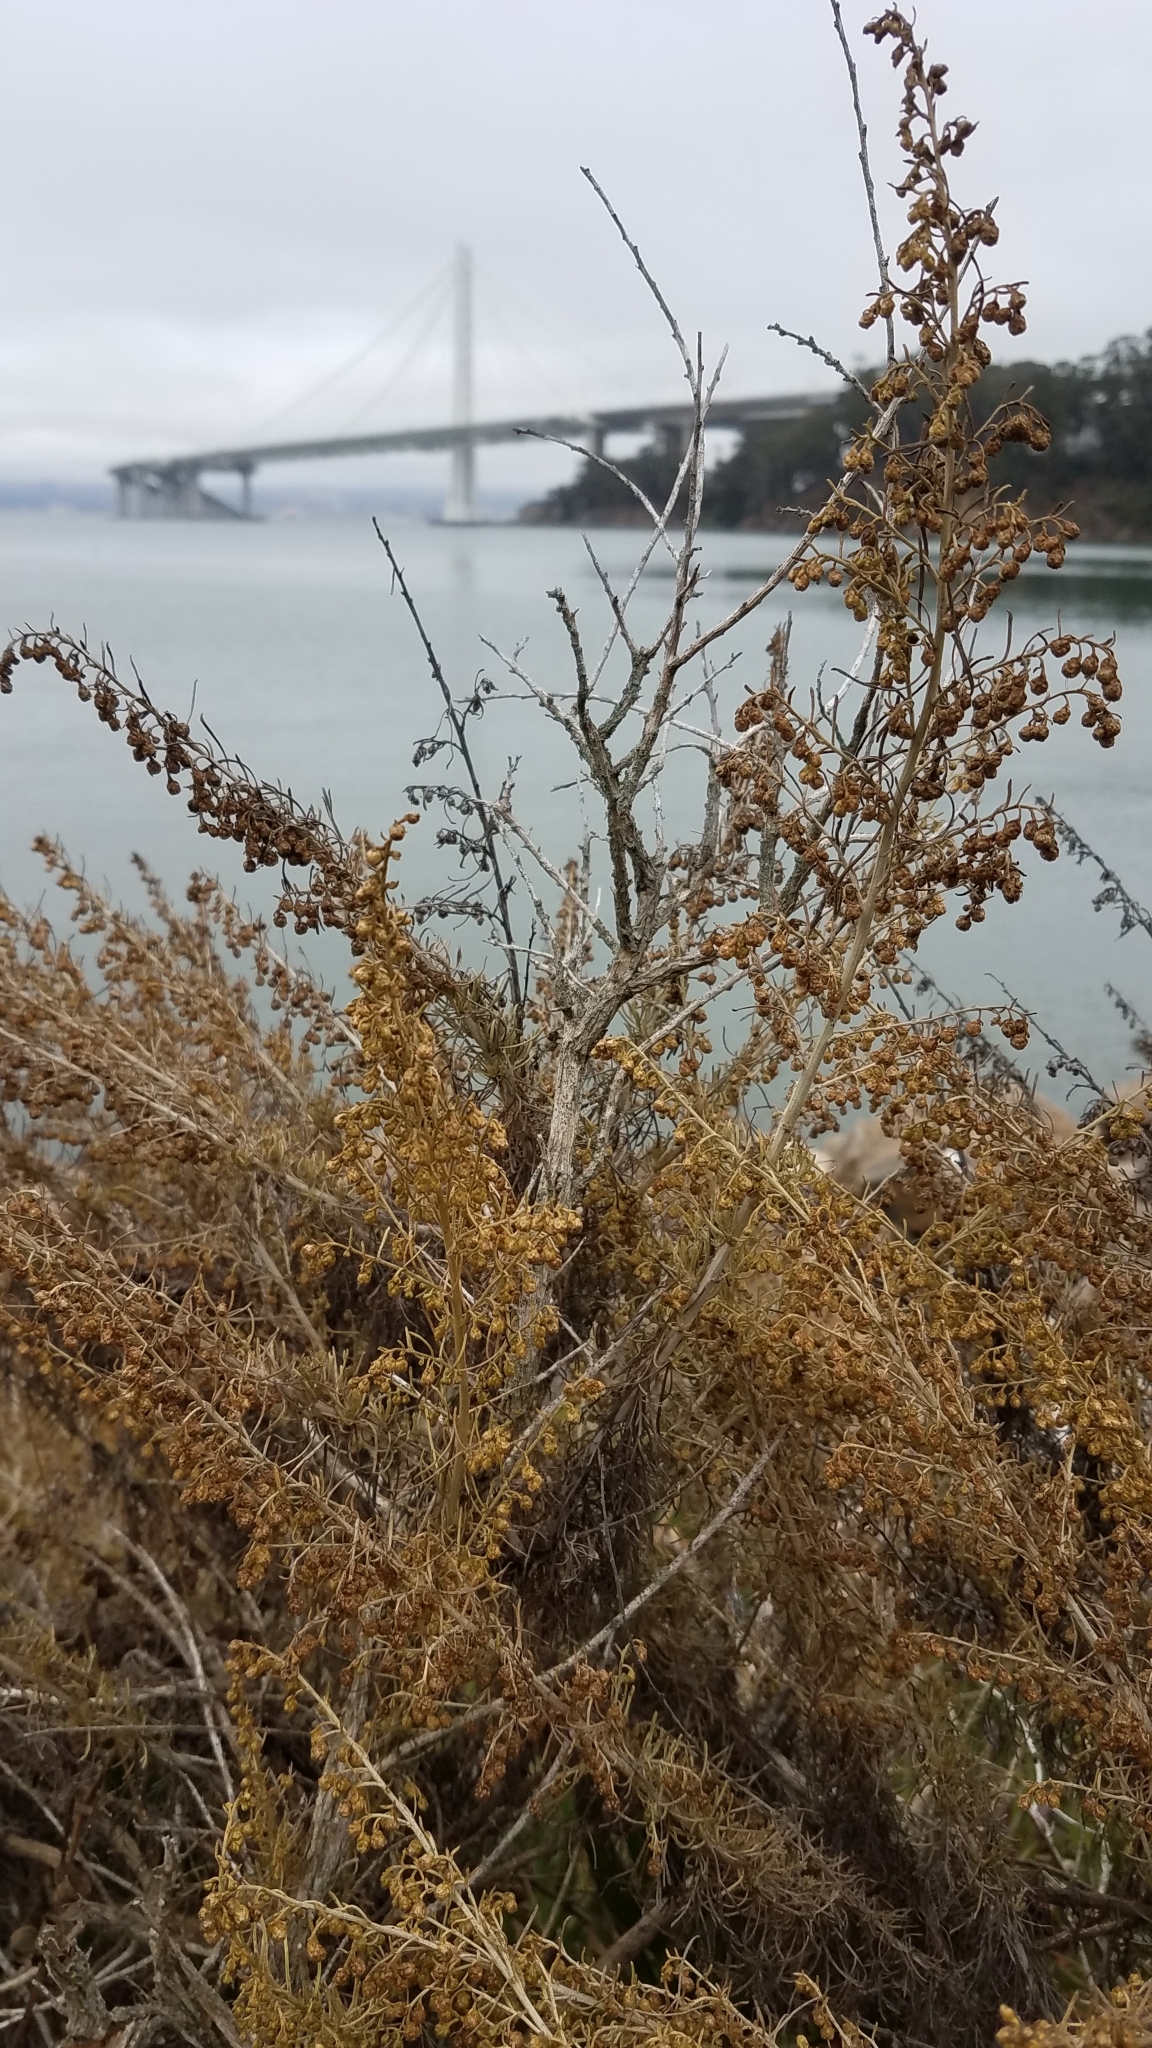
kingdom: Plantae
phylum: Tracheophyta
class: Magnoliopsida
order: Asterales
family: Asteraceae
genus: Artemisia
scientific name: Artemisia californica
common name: California sagebrush
